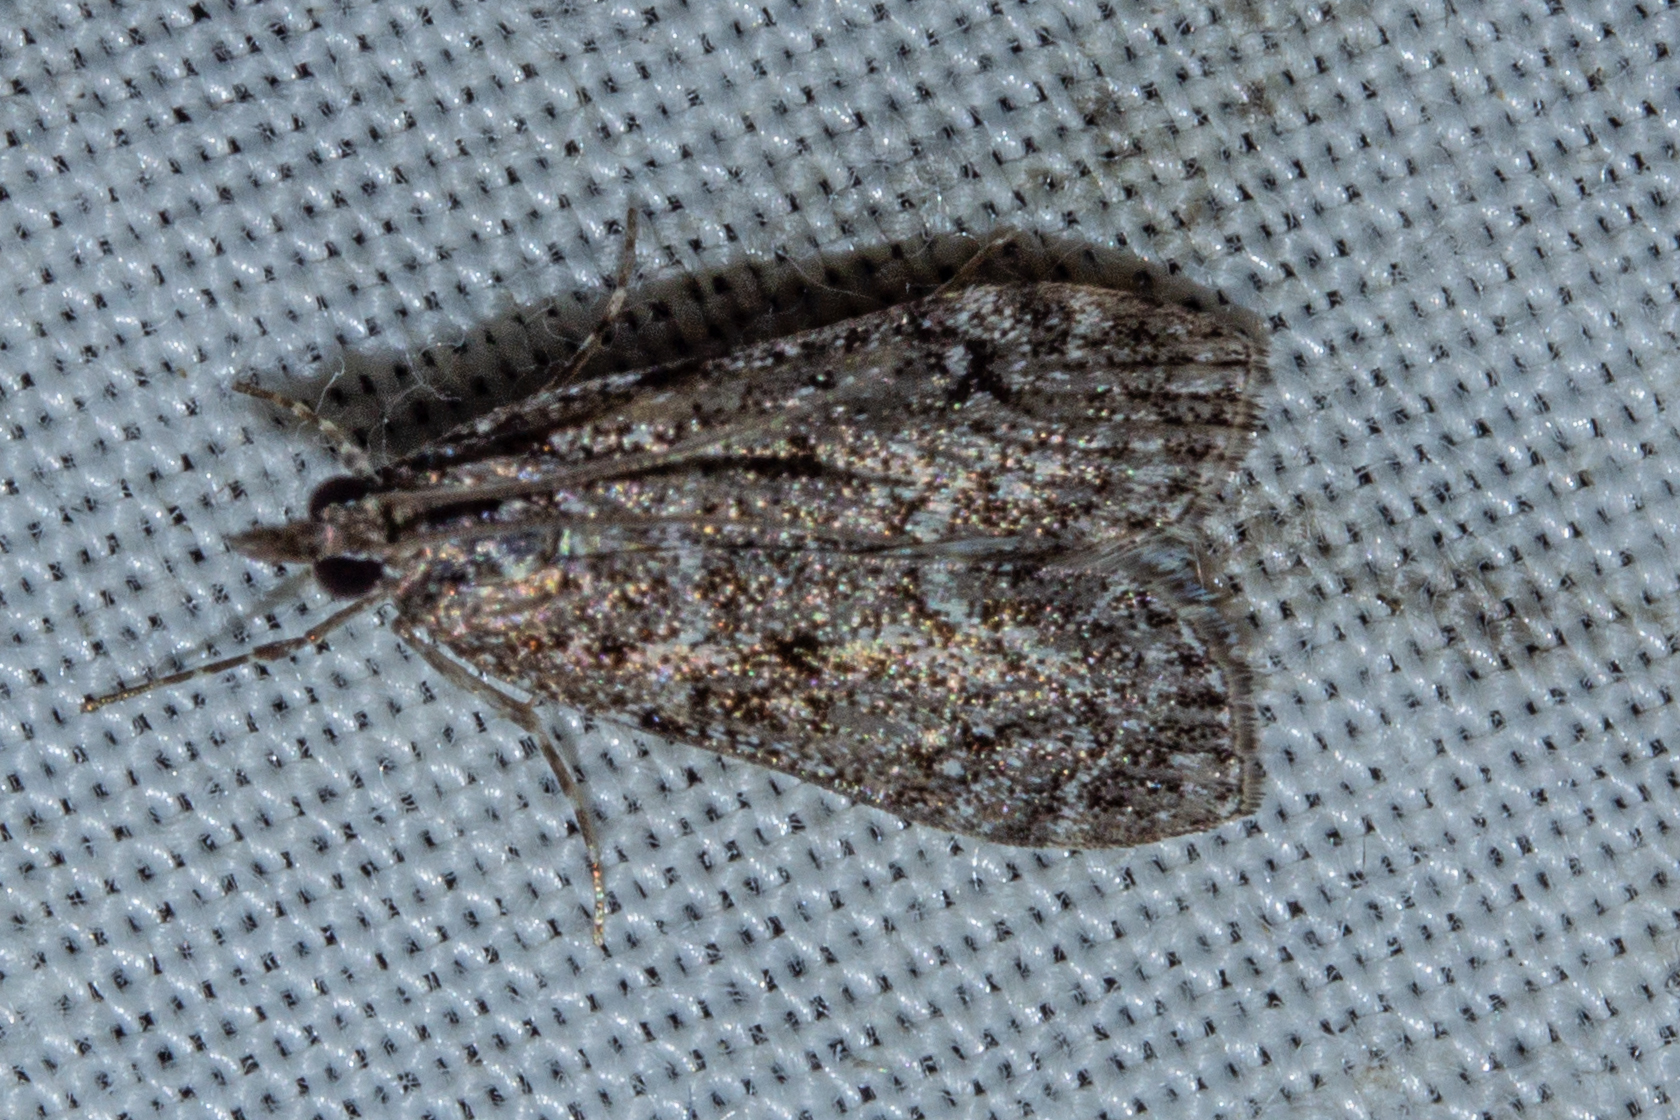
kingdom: Animalia
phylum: Arthropoda
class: Insecta
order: Lepidoptera
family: Crambidae
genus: Eudonia
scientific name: Eudonia philerga
